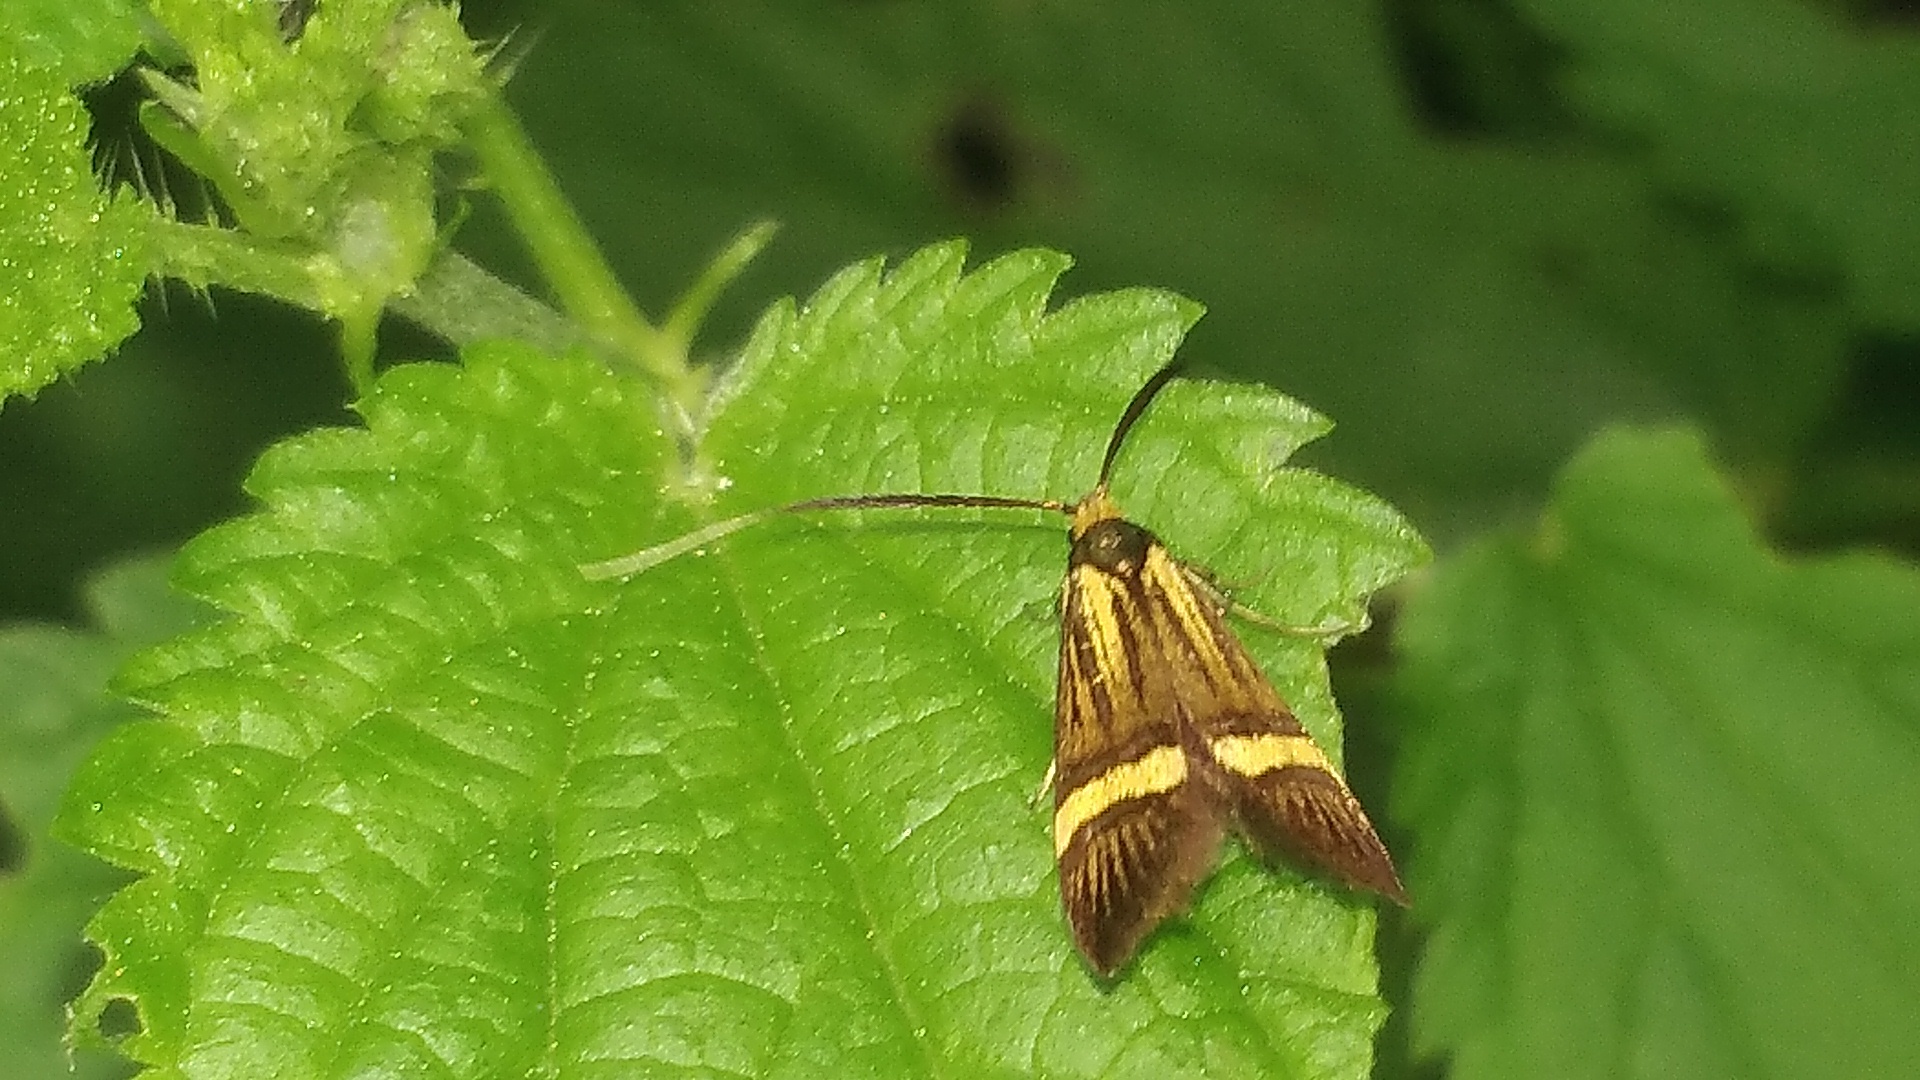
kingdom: Animalia
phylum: Arthropoda
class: Insecta
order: Lepidoptera
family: Adelidae
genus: Nemophora
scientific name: Nemophora degeerella
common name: Yellow-barred long-horn
